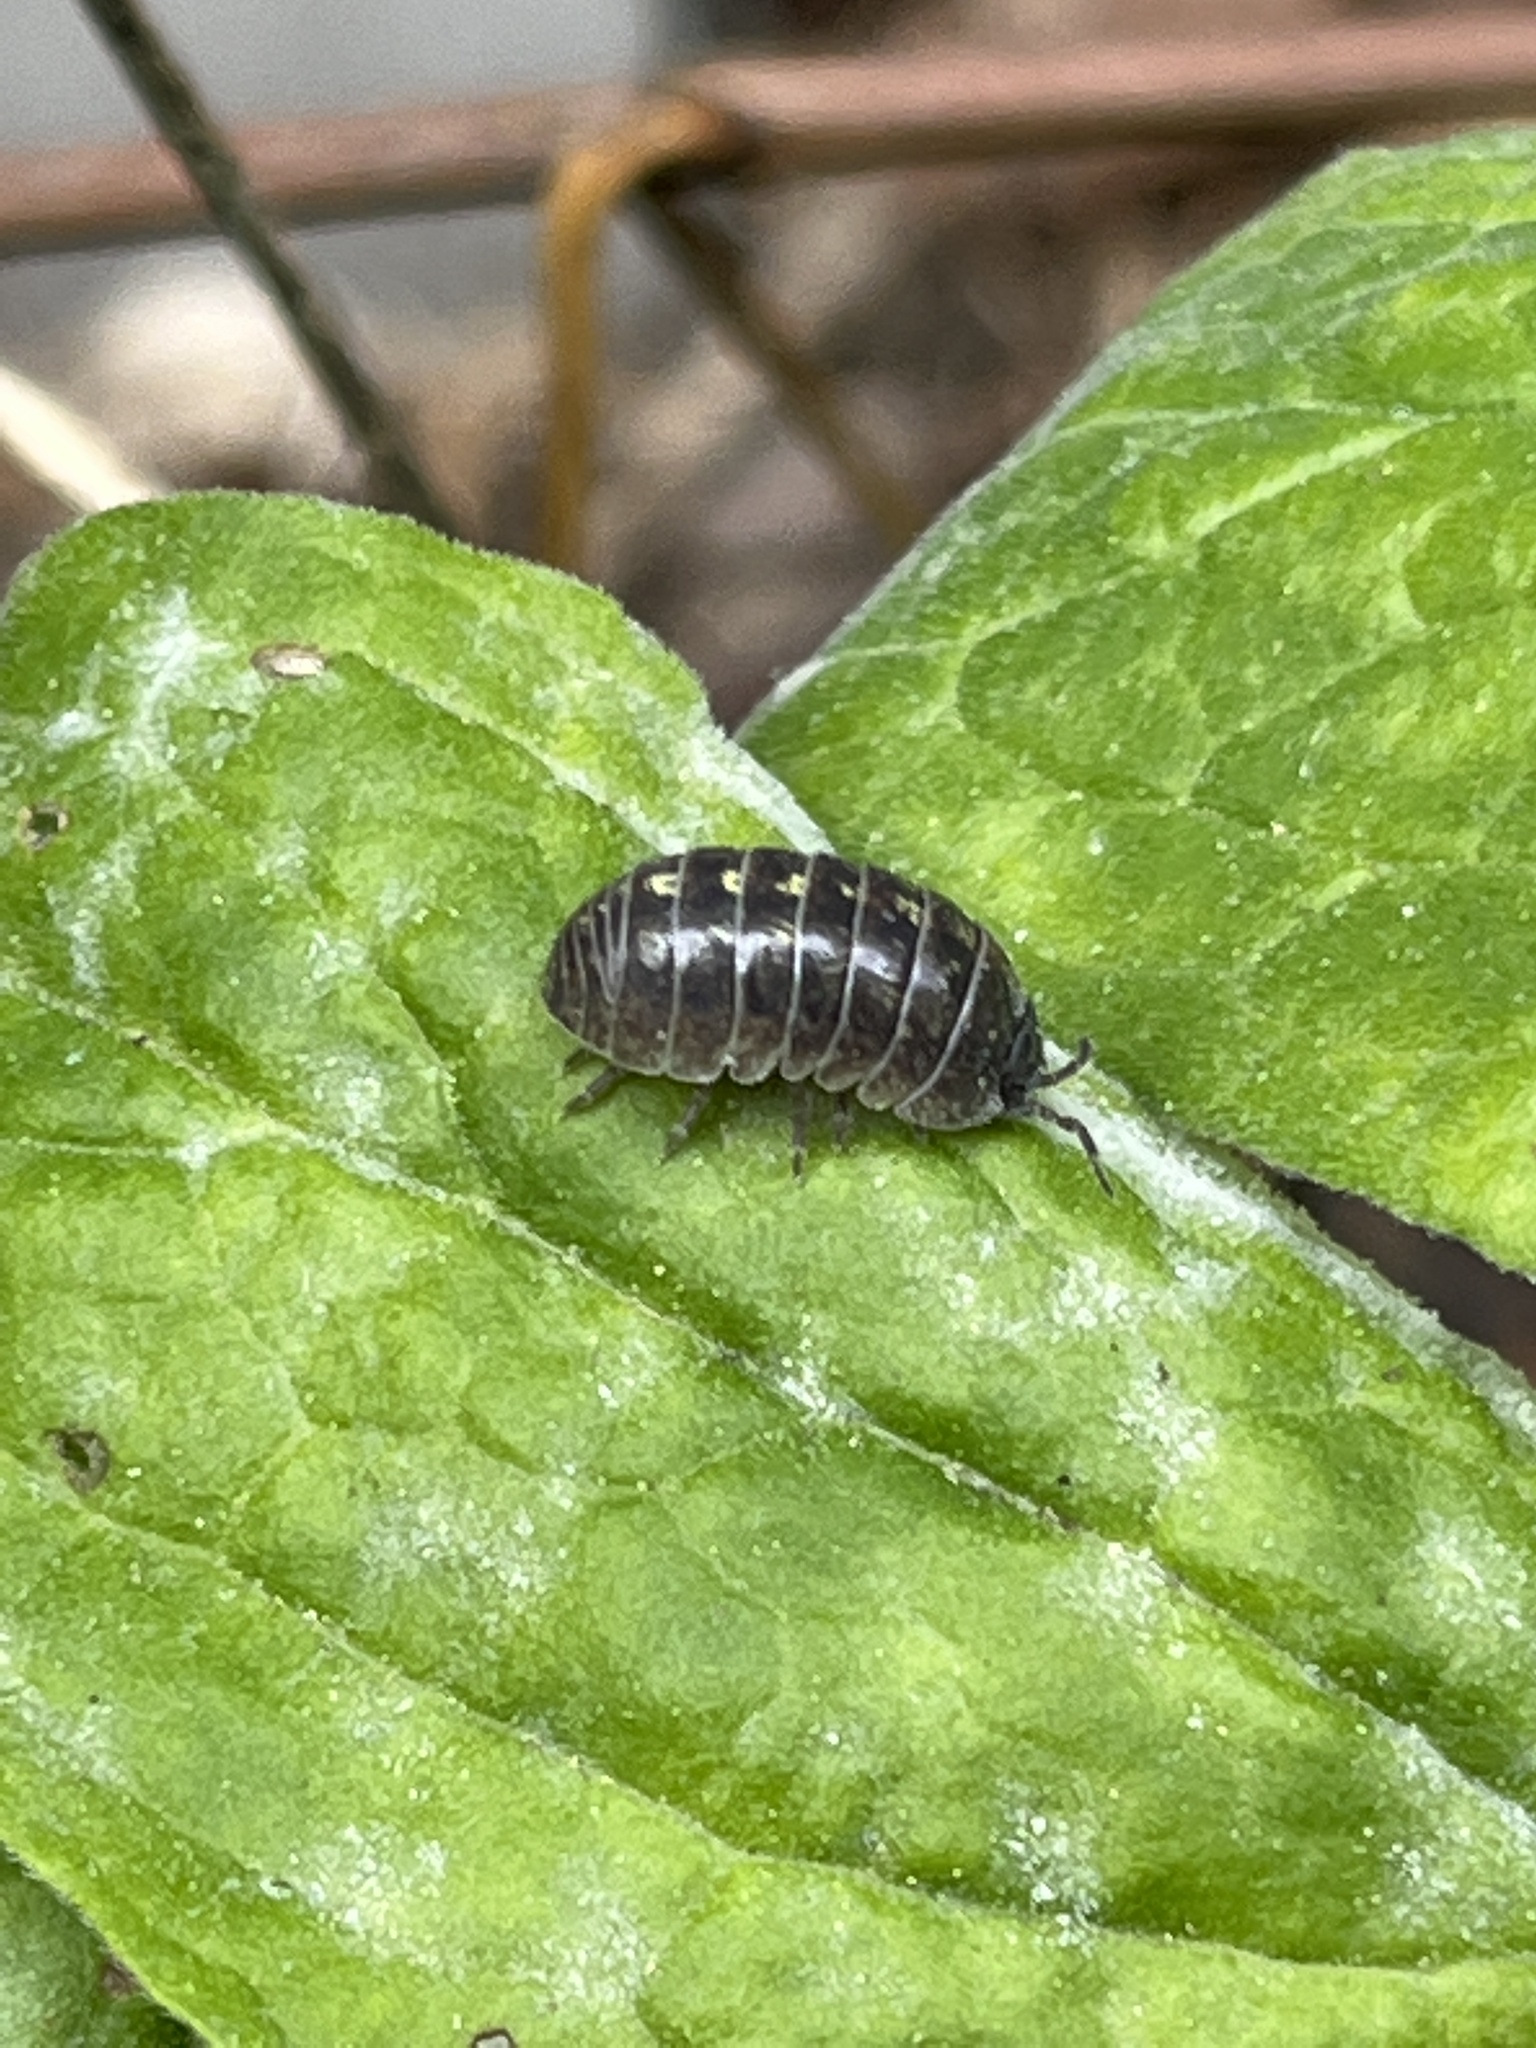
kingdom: Animalia
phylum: Arthropoda
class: Malacostraca
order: Isopoda
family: Armadillidiidae
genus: Armadillidium
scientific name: Armadillidium vulgare
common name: Common pill woodlouse
